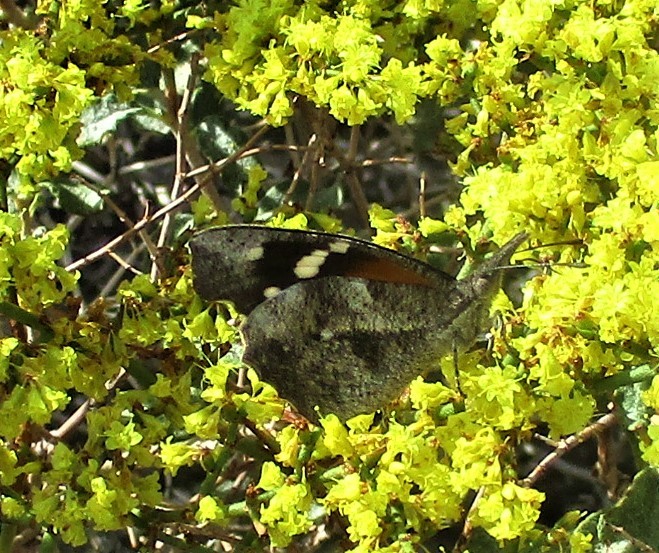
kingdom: Animalia
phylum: Arthropoda
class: Insecta
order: Lepidoptera
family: Nymphalidae
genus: Libytheana
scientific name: Libytheana carinenta
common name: American snout
